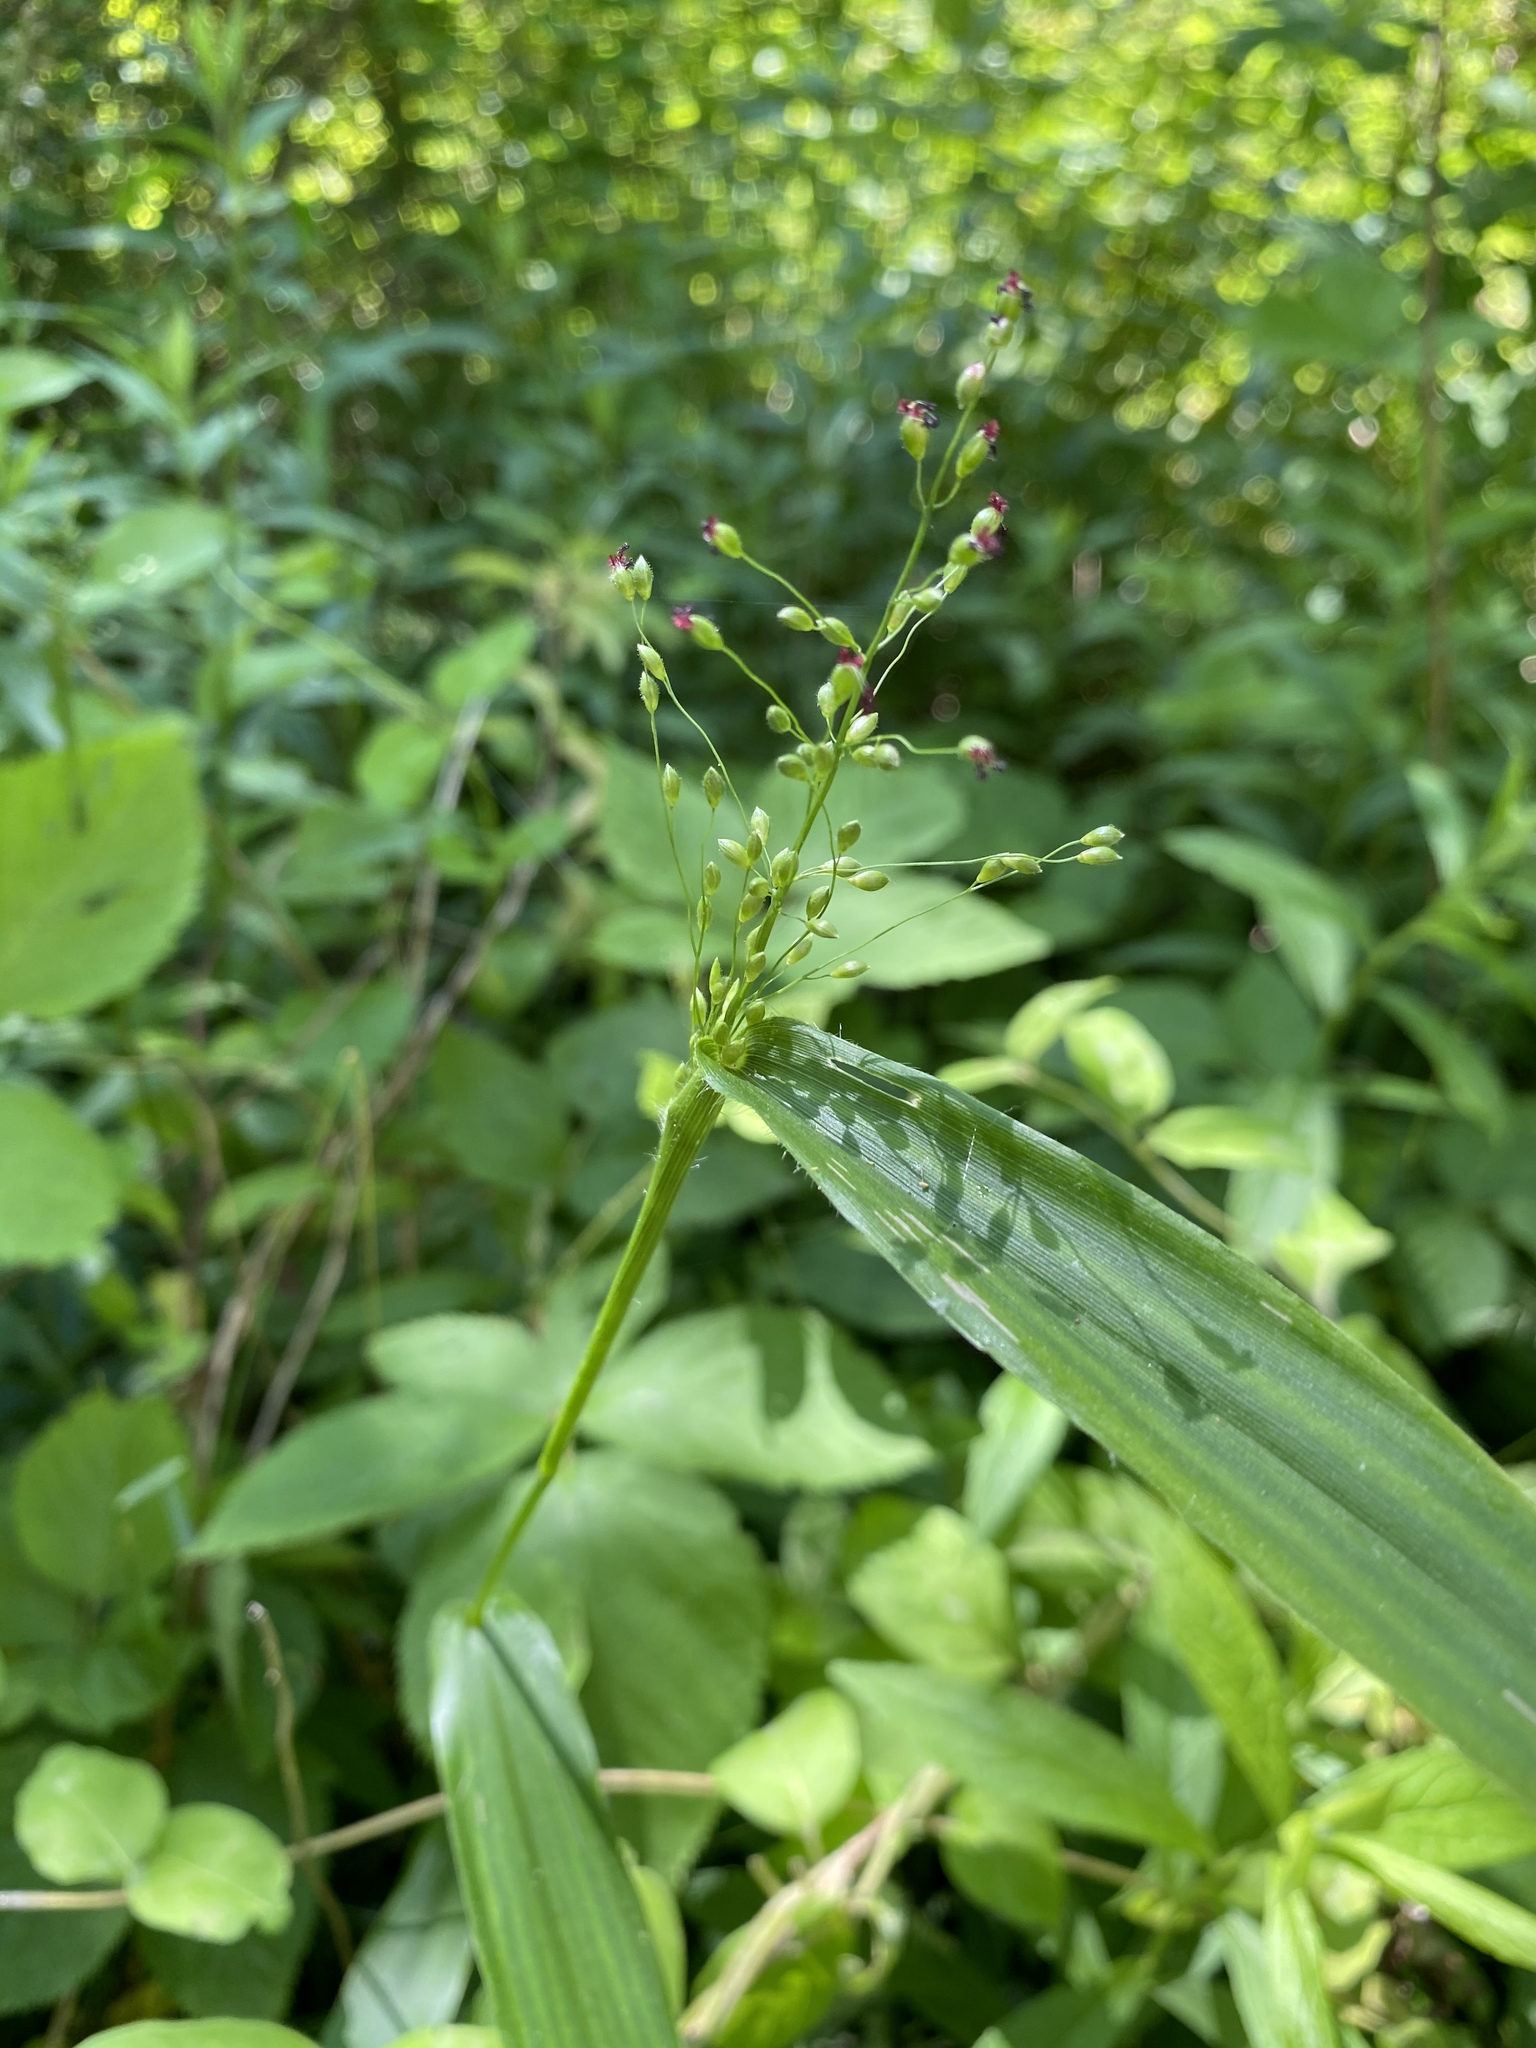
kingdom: Plantae
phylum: Tracheophyta
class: Liliopsida
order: Poales
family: Poaceae
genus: Dichanthelium
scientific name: Dichanthelium latifolium
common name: Broad-leaved panicgrass
